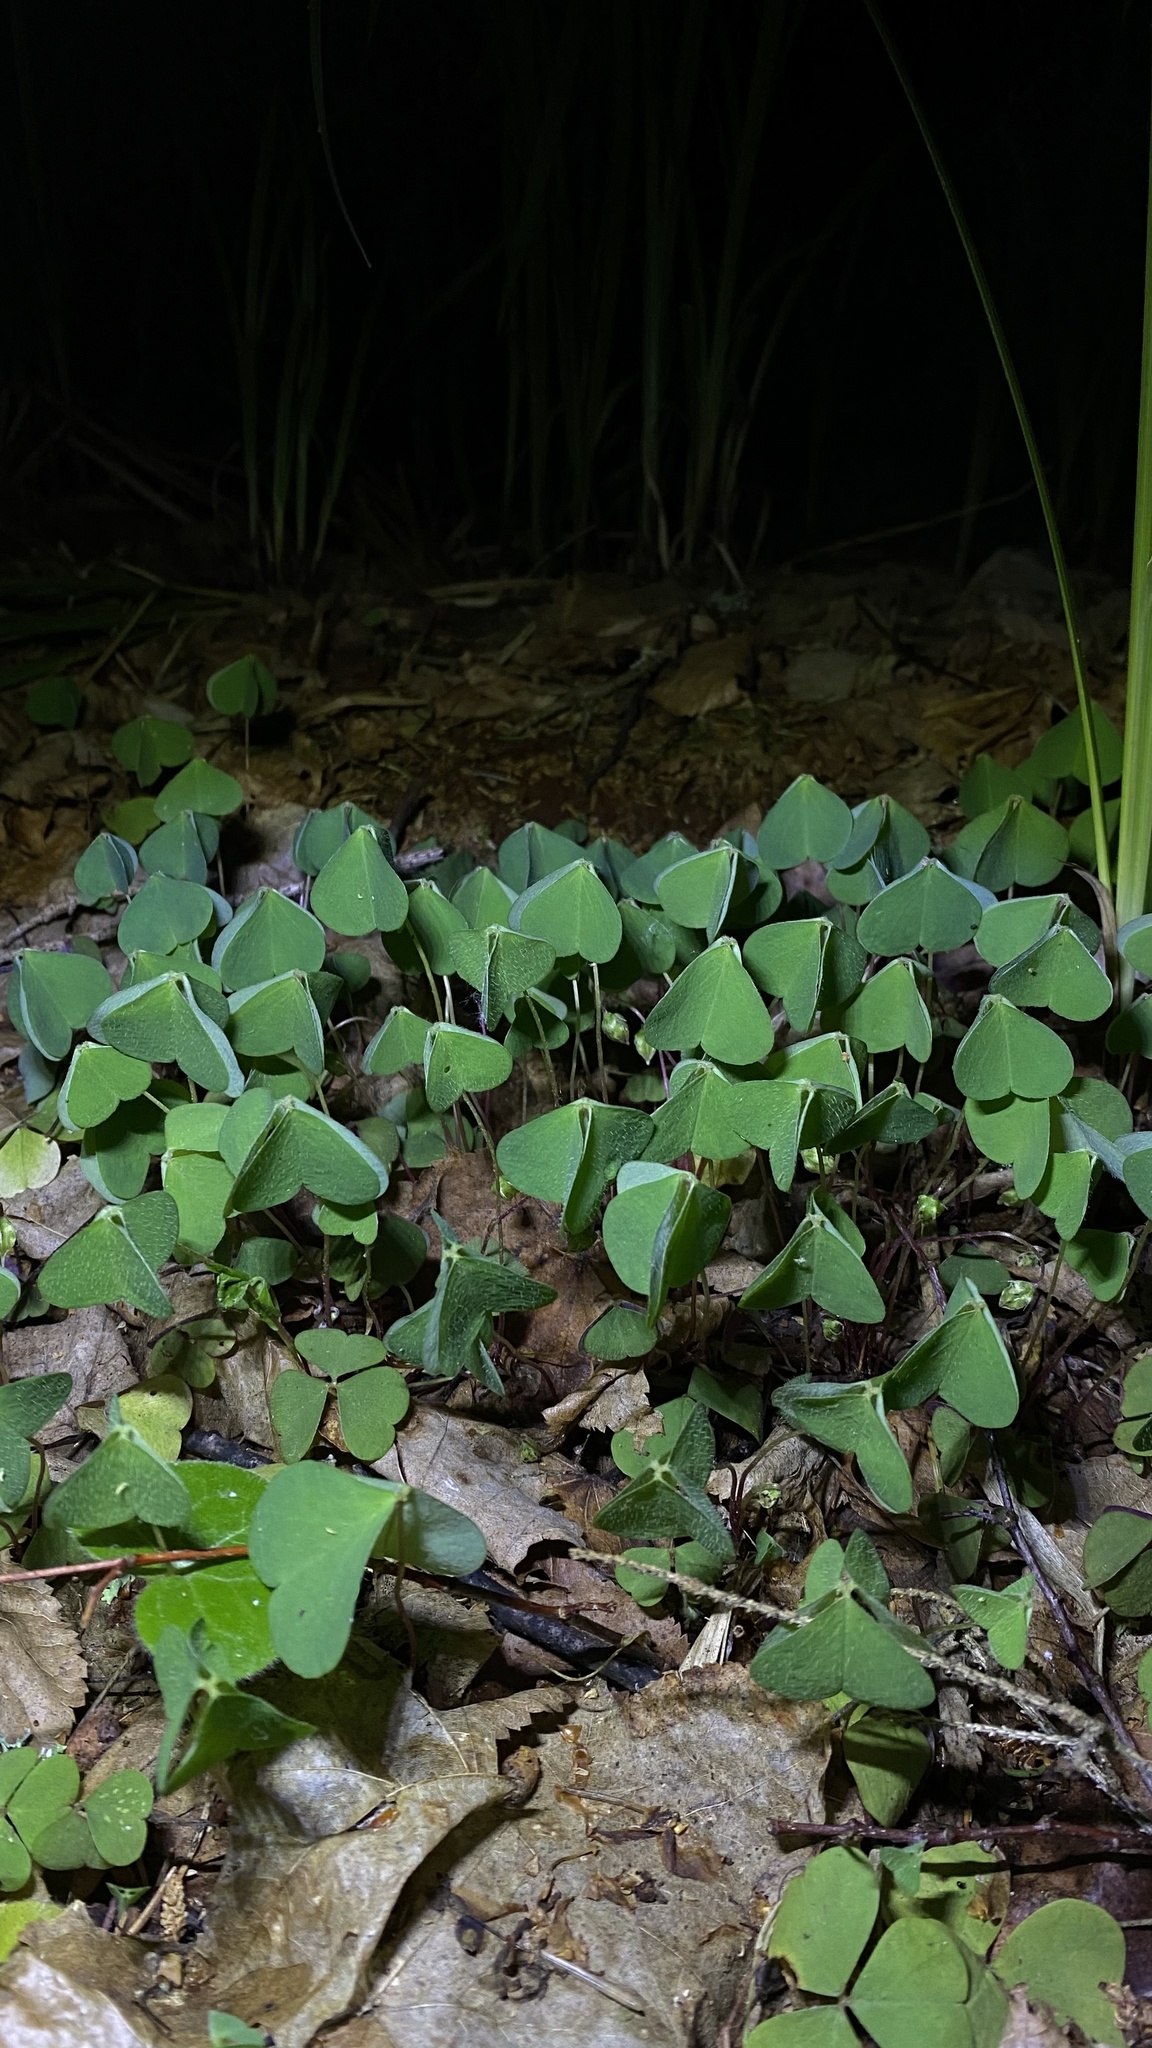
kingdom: Plantae
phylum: Tracheophyta
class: Magnoliopsida
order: Oxalidales
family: Oxalidaceae
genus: Oxalis
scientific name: Oxalis acetosella
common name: Wood-sorrel
